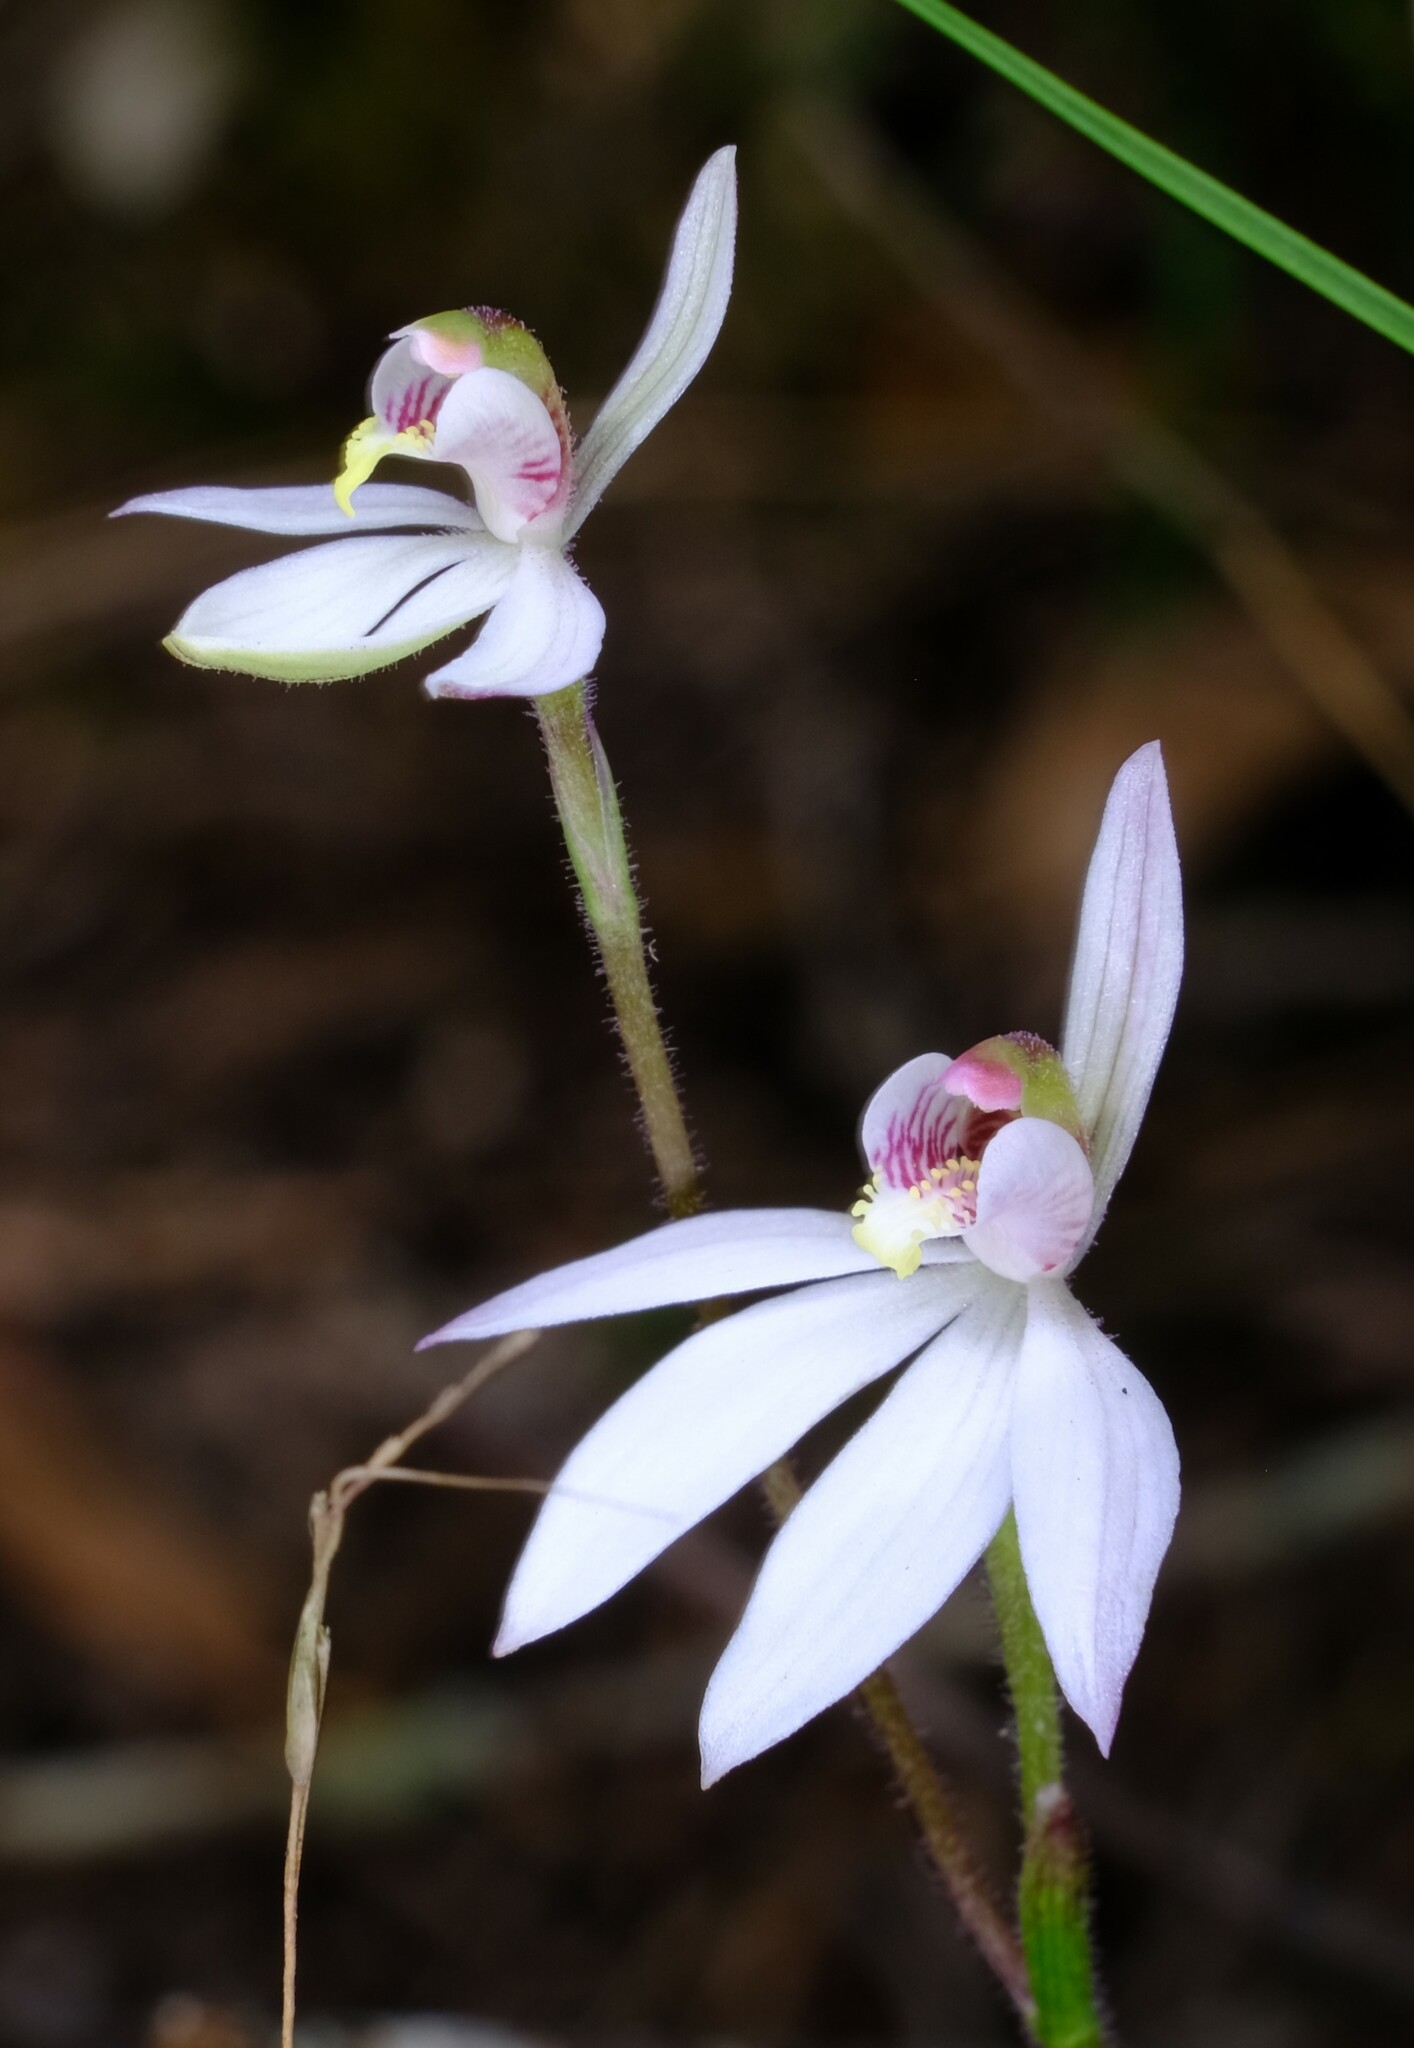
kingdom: Plantae
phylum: Tracheophyta
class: Liliopsida
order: Asparagales
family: Orchidaceae
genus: Caladenia
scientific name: Caladenia carnea
